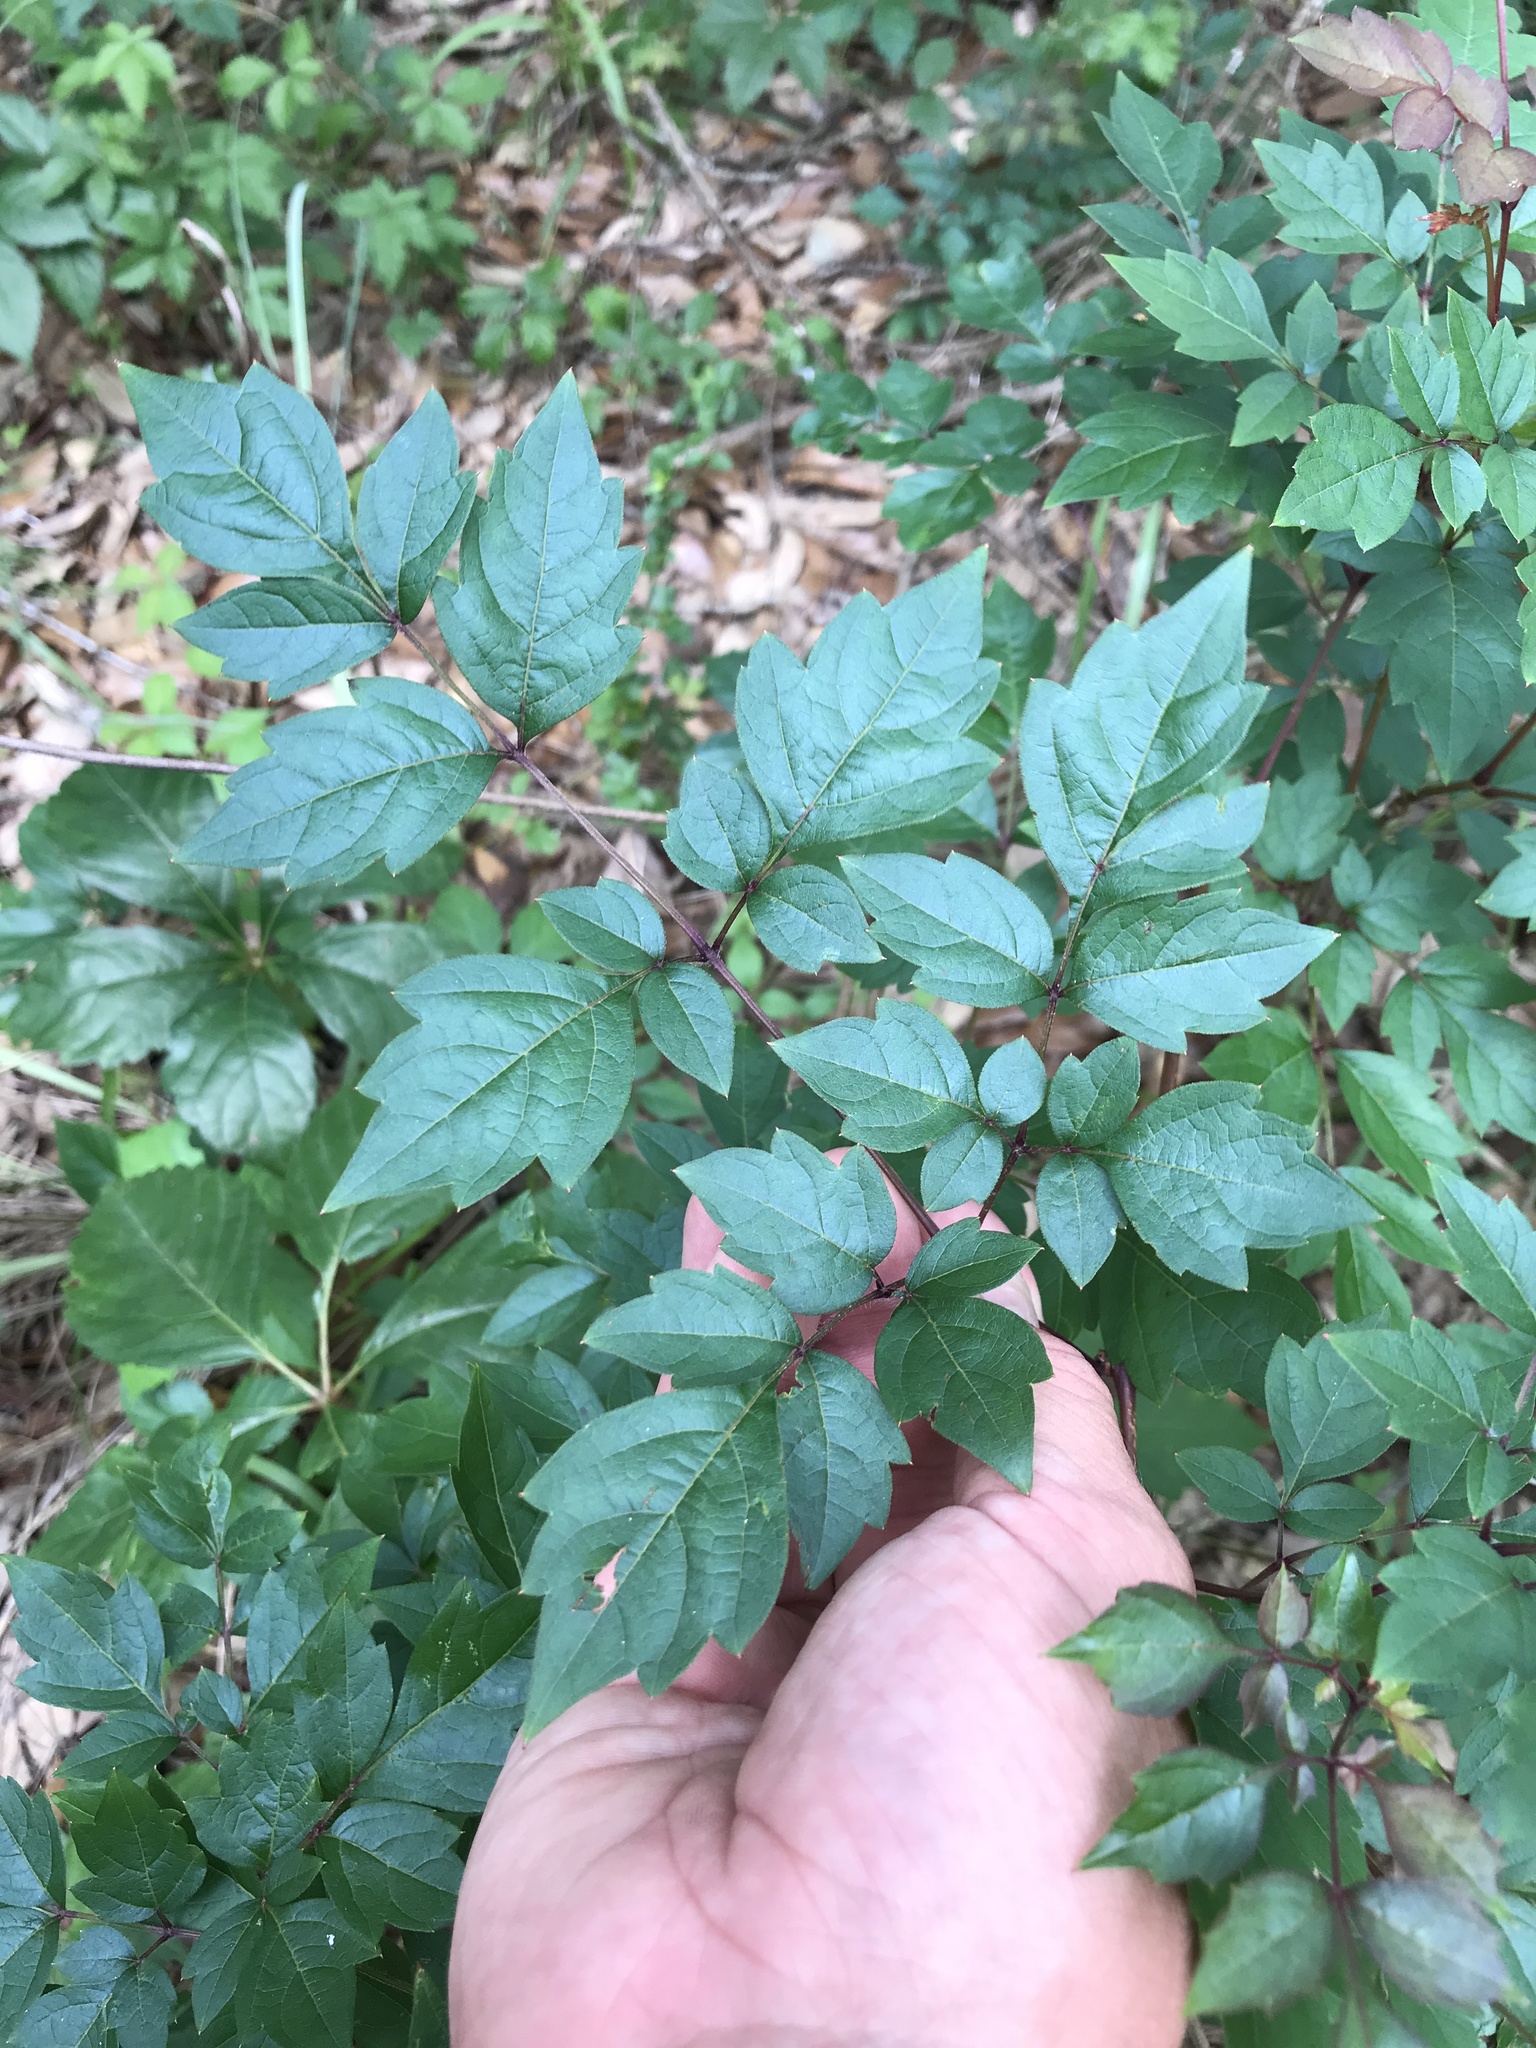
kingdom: Plantae
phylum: Tracheophyta
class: Magnoliopsida
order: Vitales
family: Vitaceae
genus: Nekemias
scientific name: Nekemias arborea
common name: Peppervine
